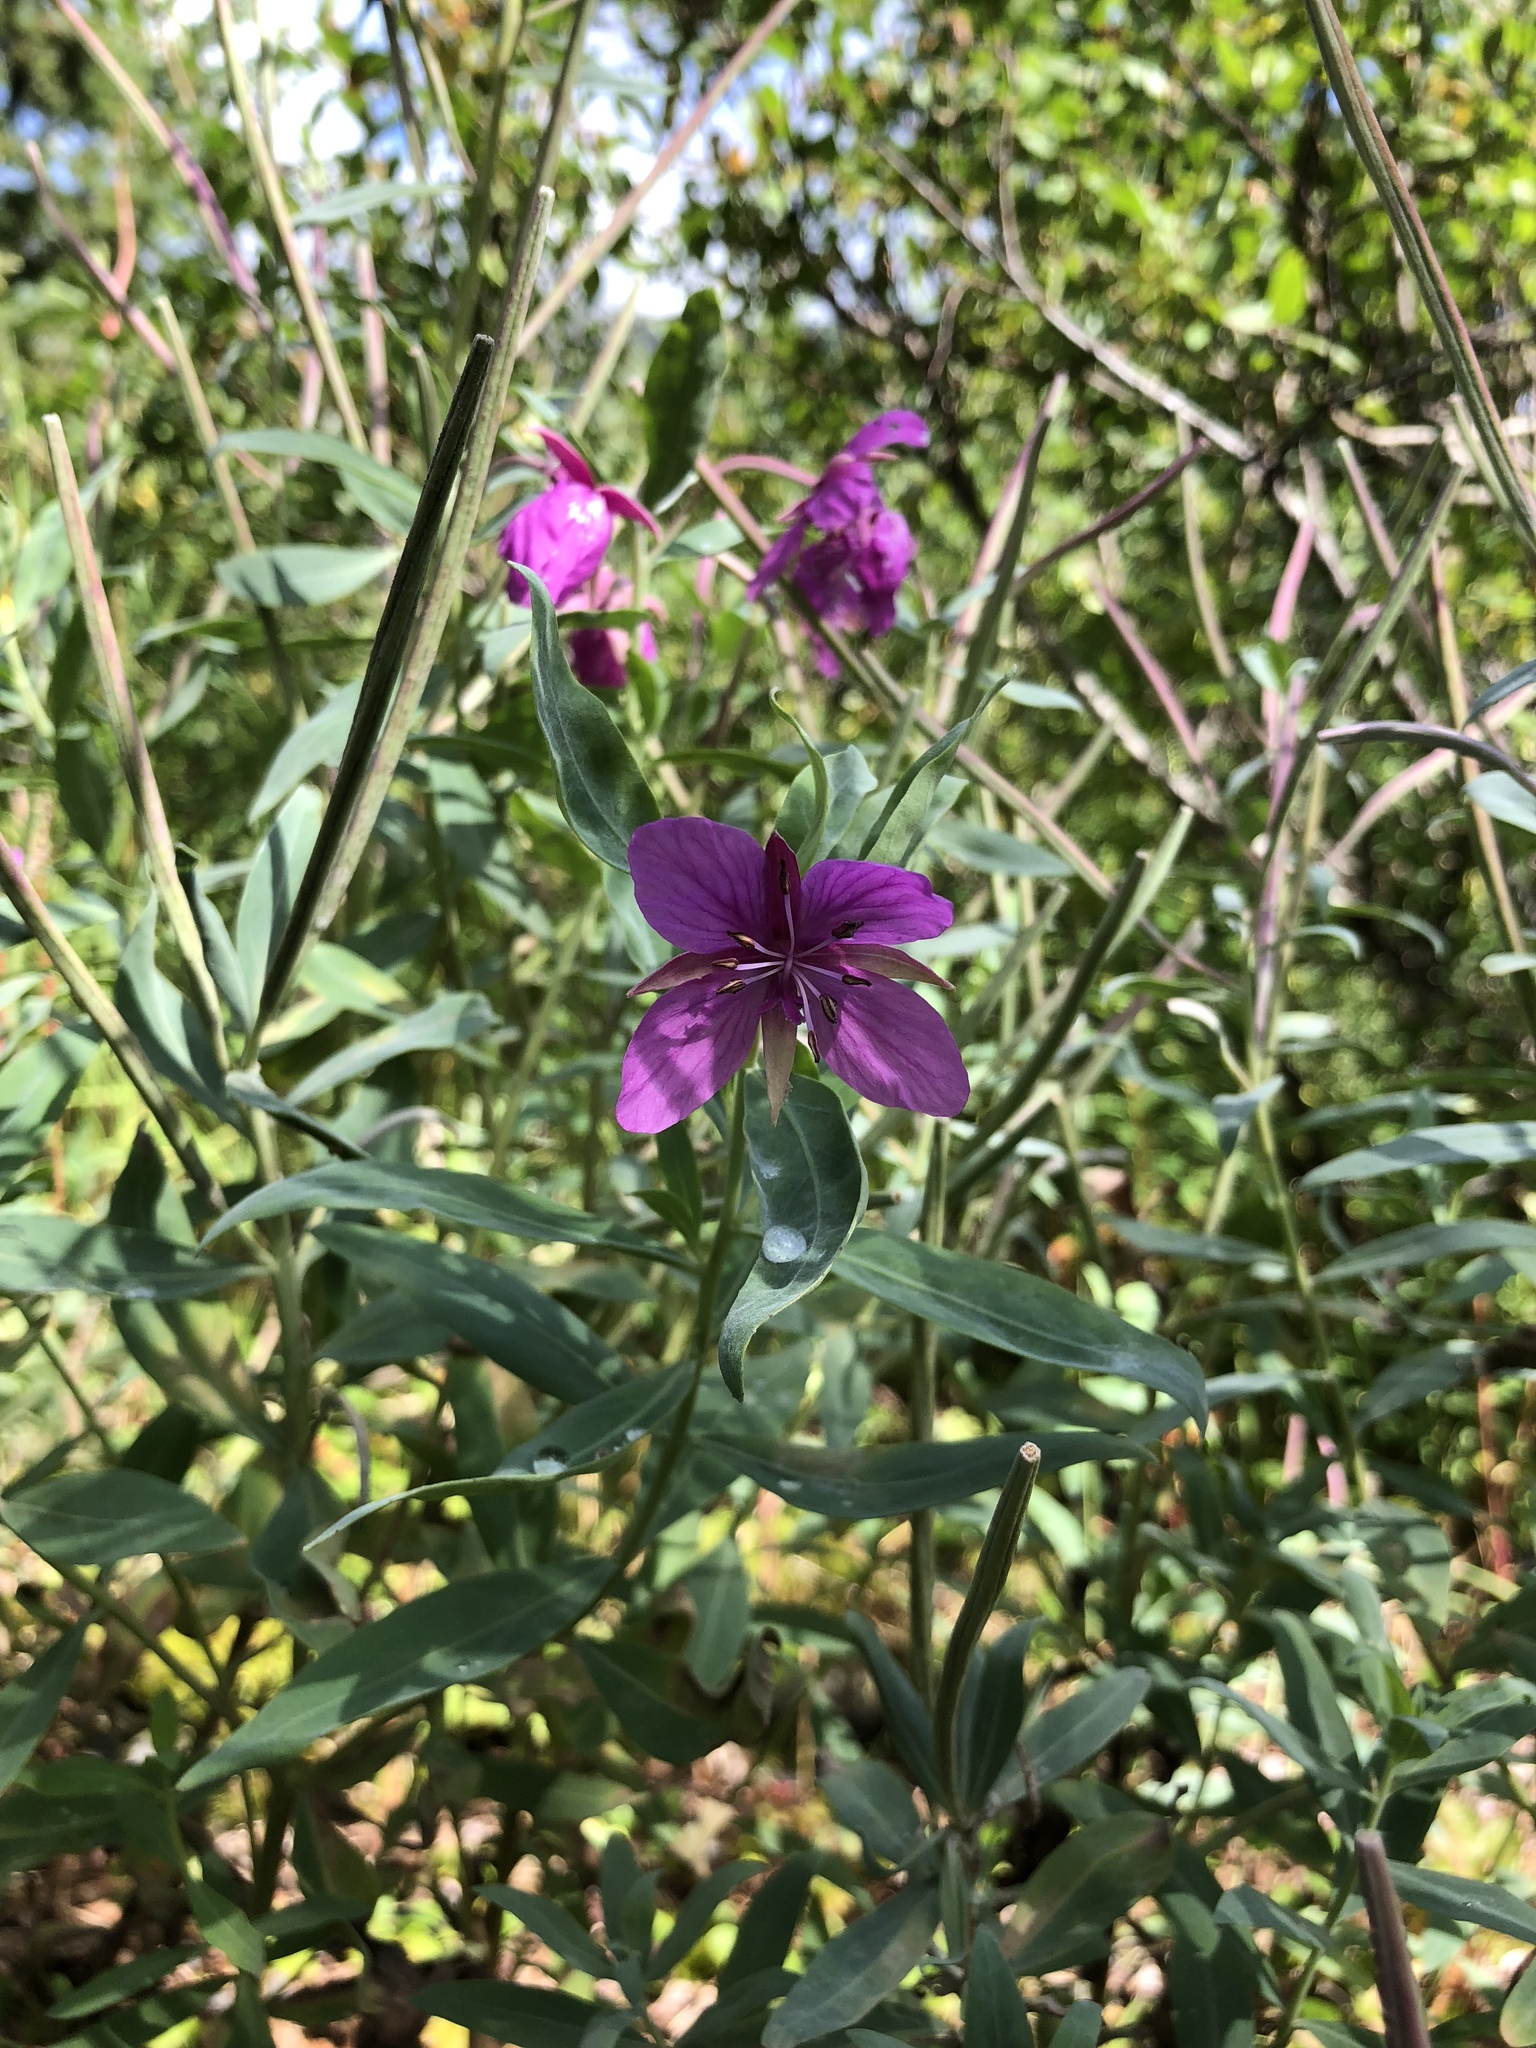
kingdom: Plantae
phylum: Tracheophyta
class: Magnoliopsida
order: Myrtales
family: Onagraceae
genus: Chamaenerion
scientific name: Chamaenerion latifolium
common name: Dwarf fireweed
